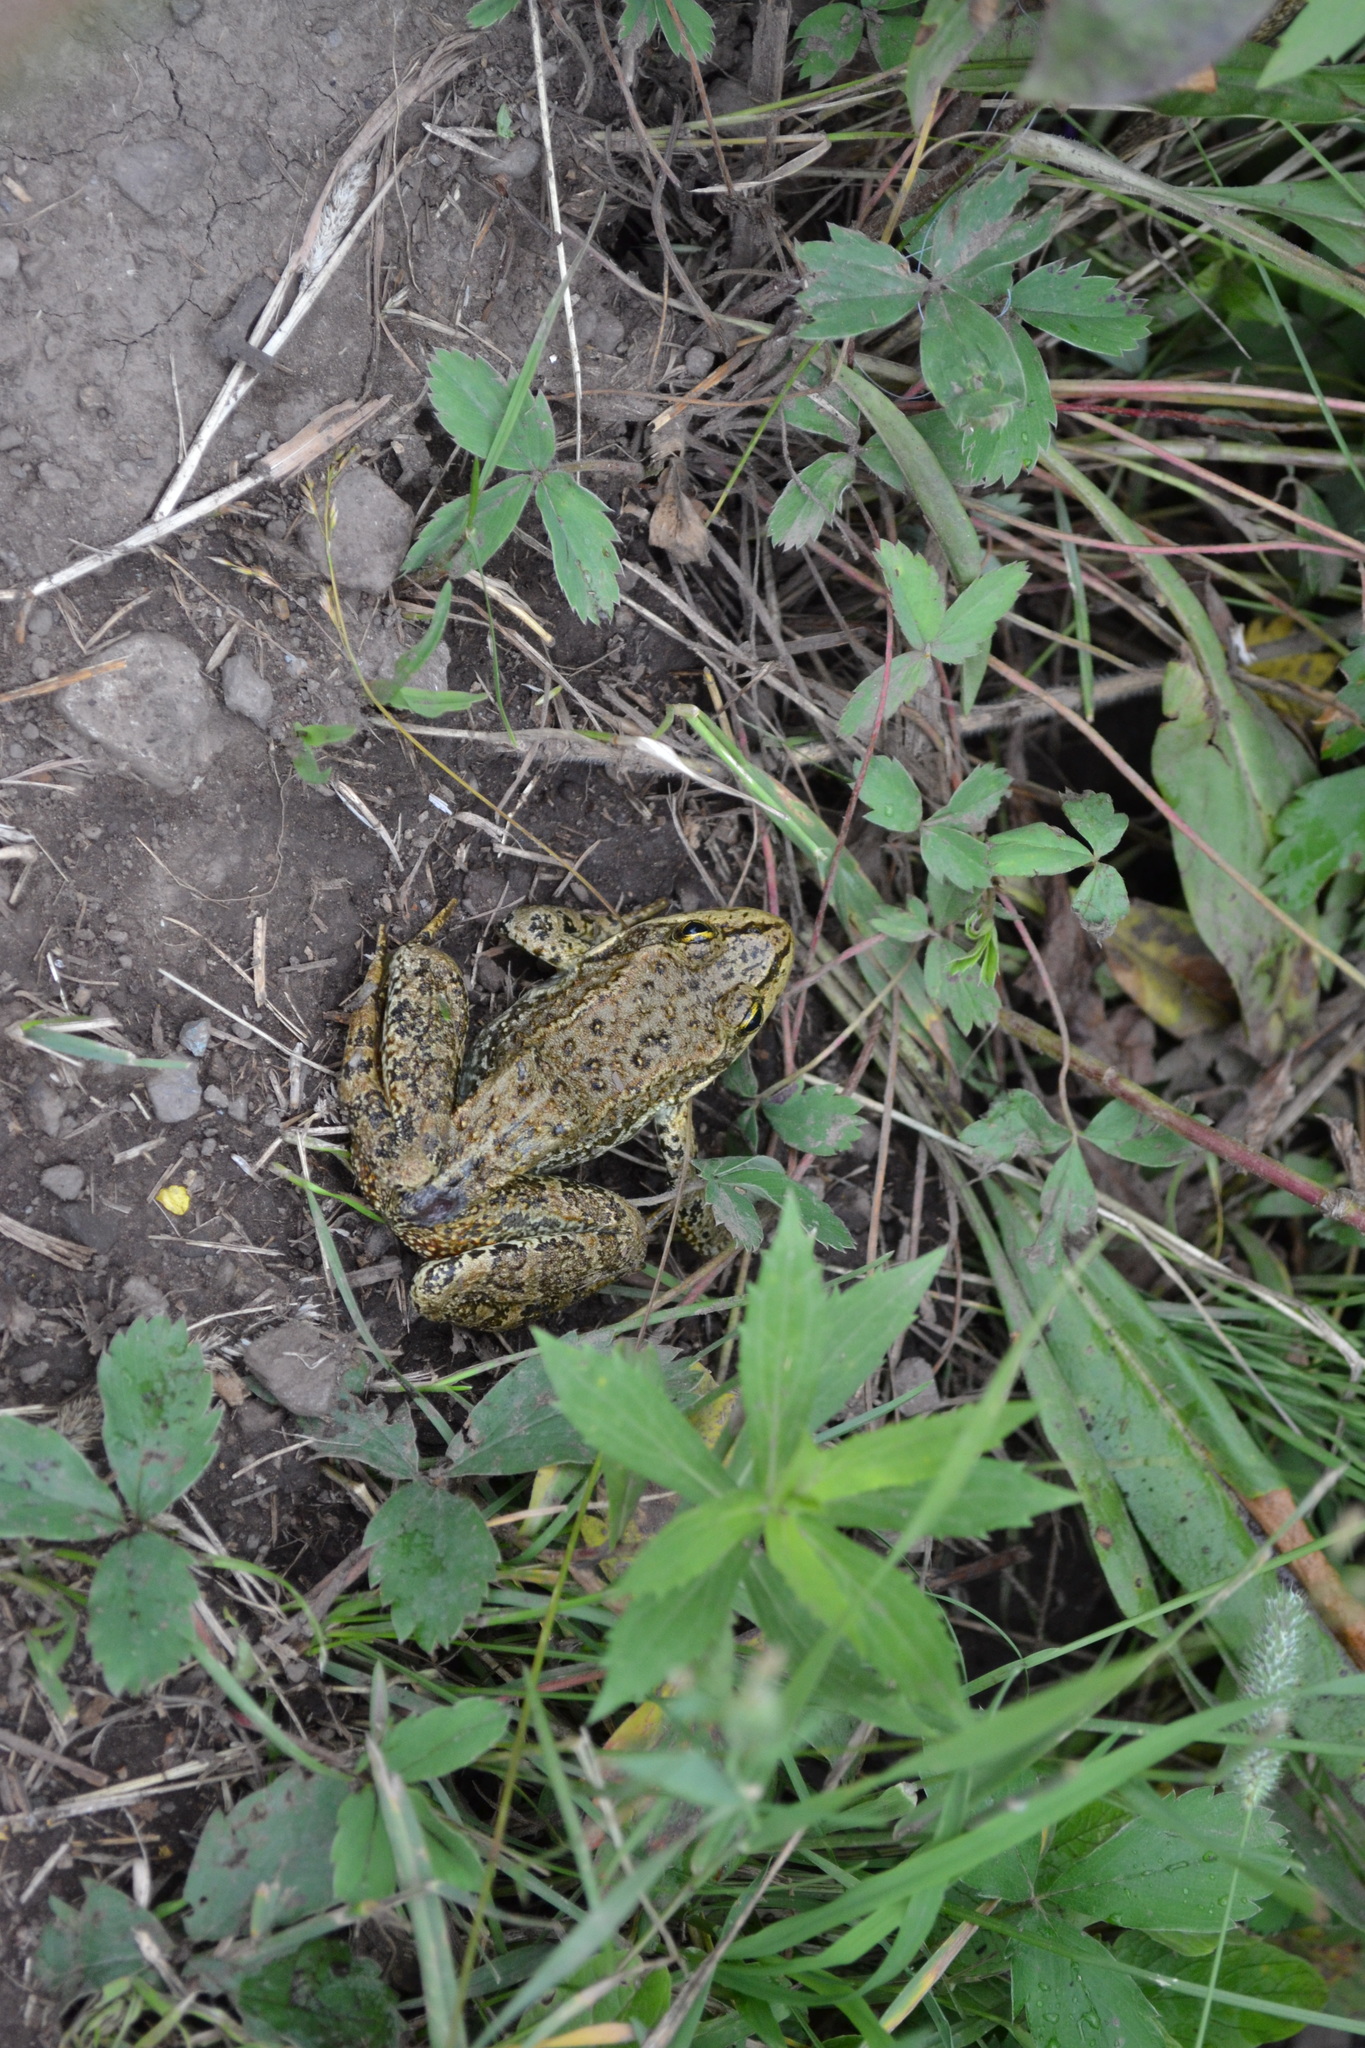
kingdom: Animalia
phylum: Chordata
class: Amphibia
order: Anura
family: Ranidae
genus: Rana
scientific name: Rana luteiventris
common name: Columbia spotted frog
